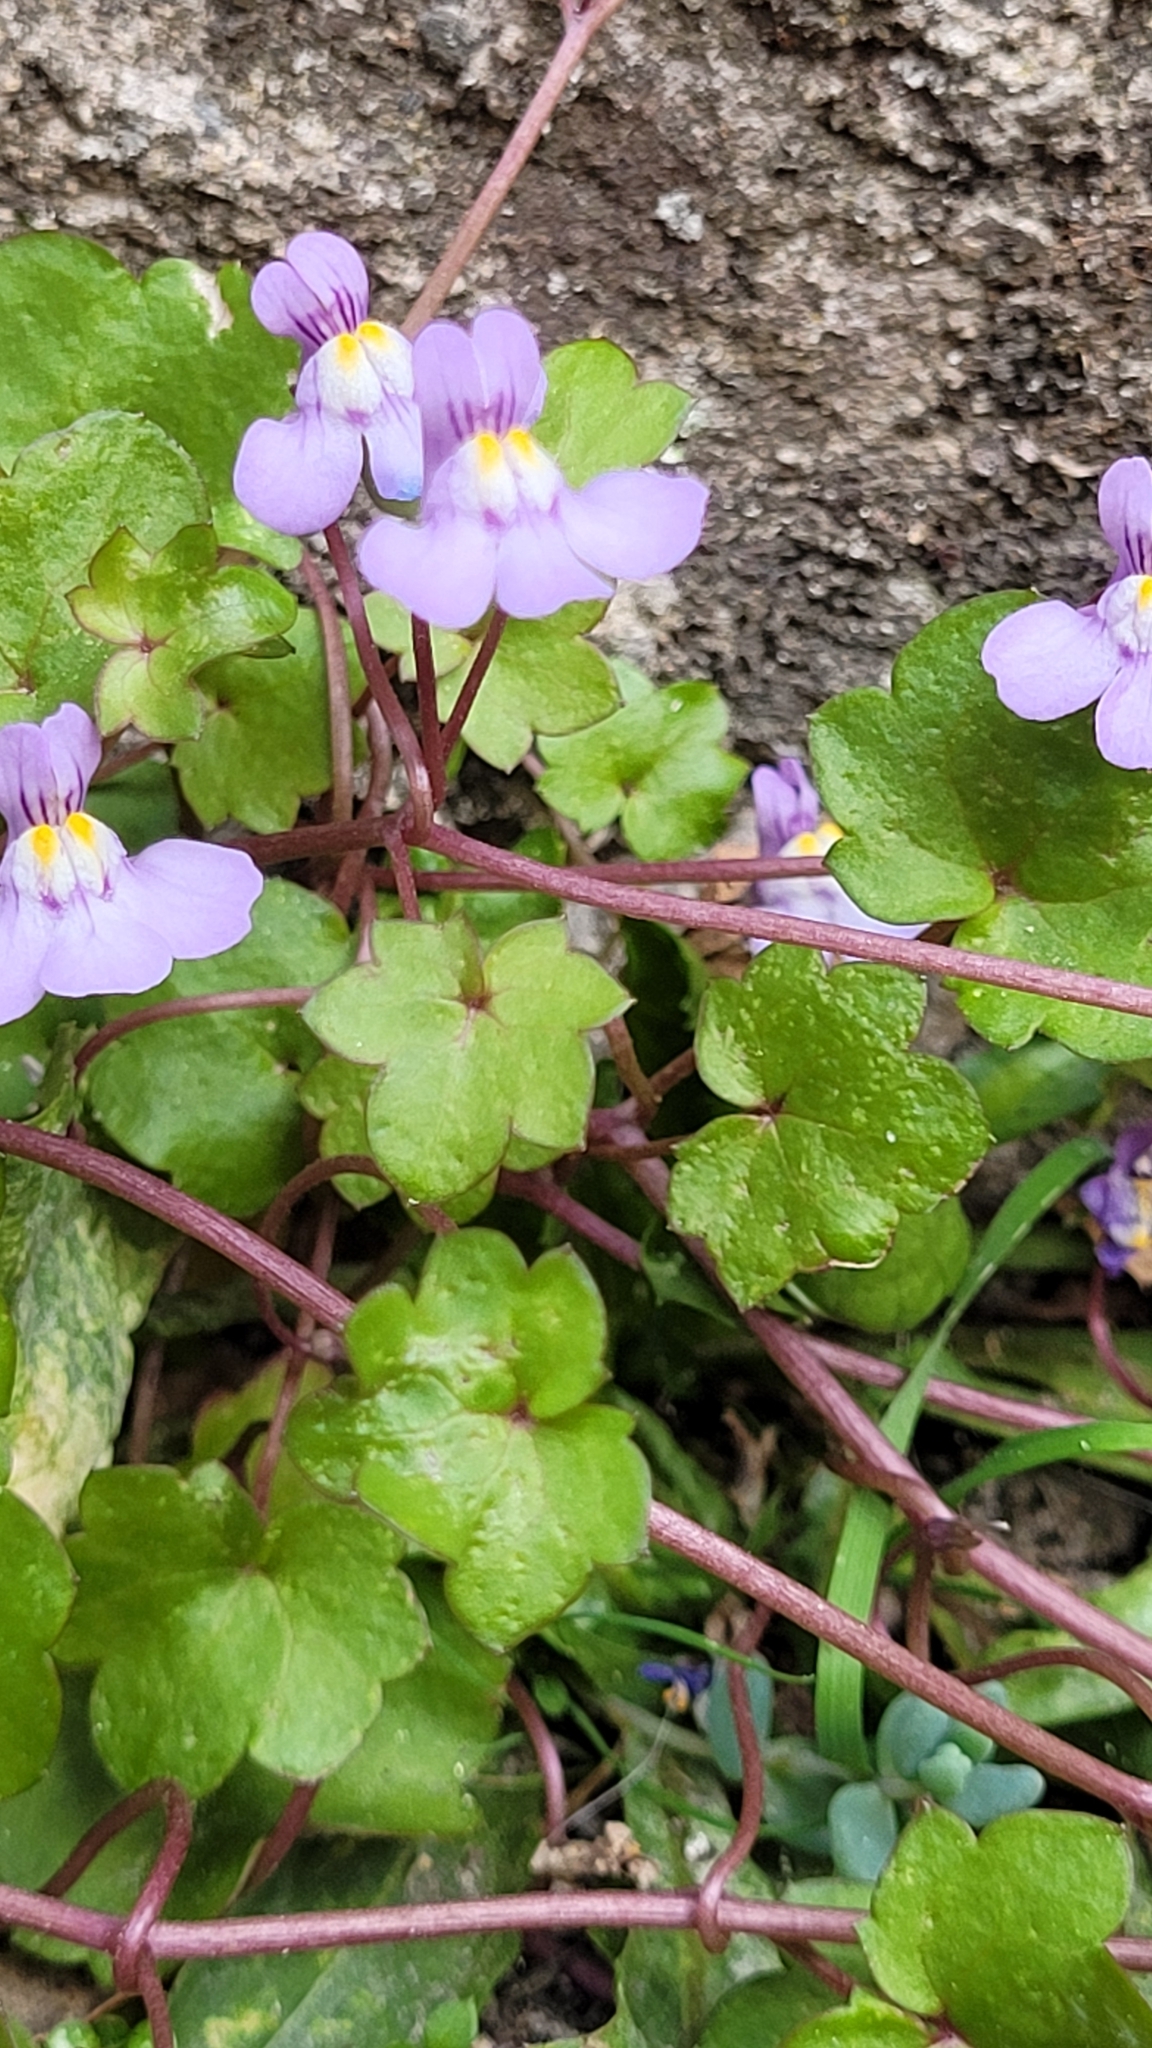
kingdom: Plantae
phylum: Tracheophyta
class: Magnoliopsida
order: Lamiales
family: Plantaginaceae
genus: Cymbalaria
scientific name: Cymbalaria muralis
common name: Ivy-leaved toadflax
